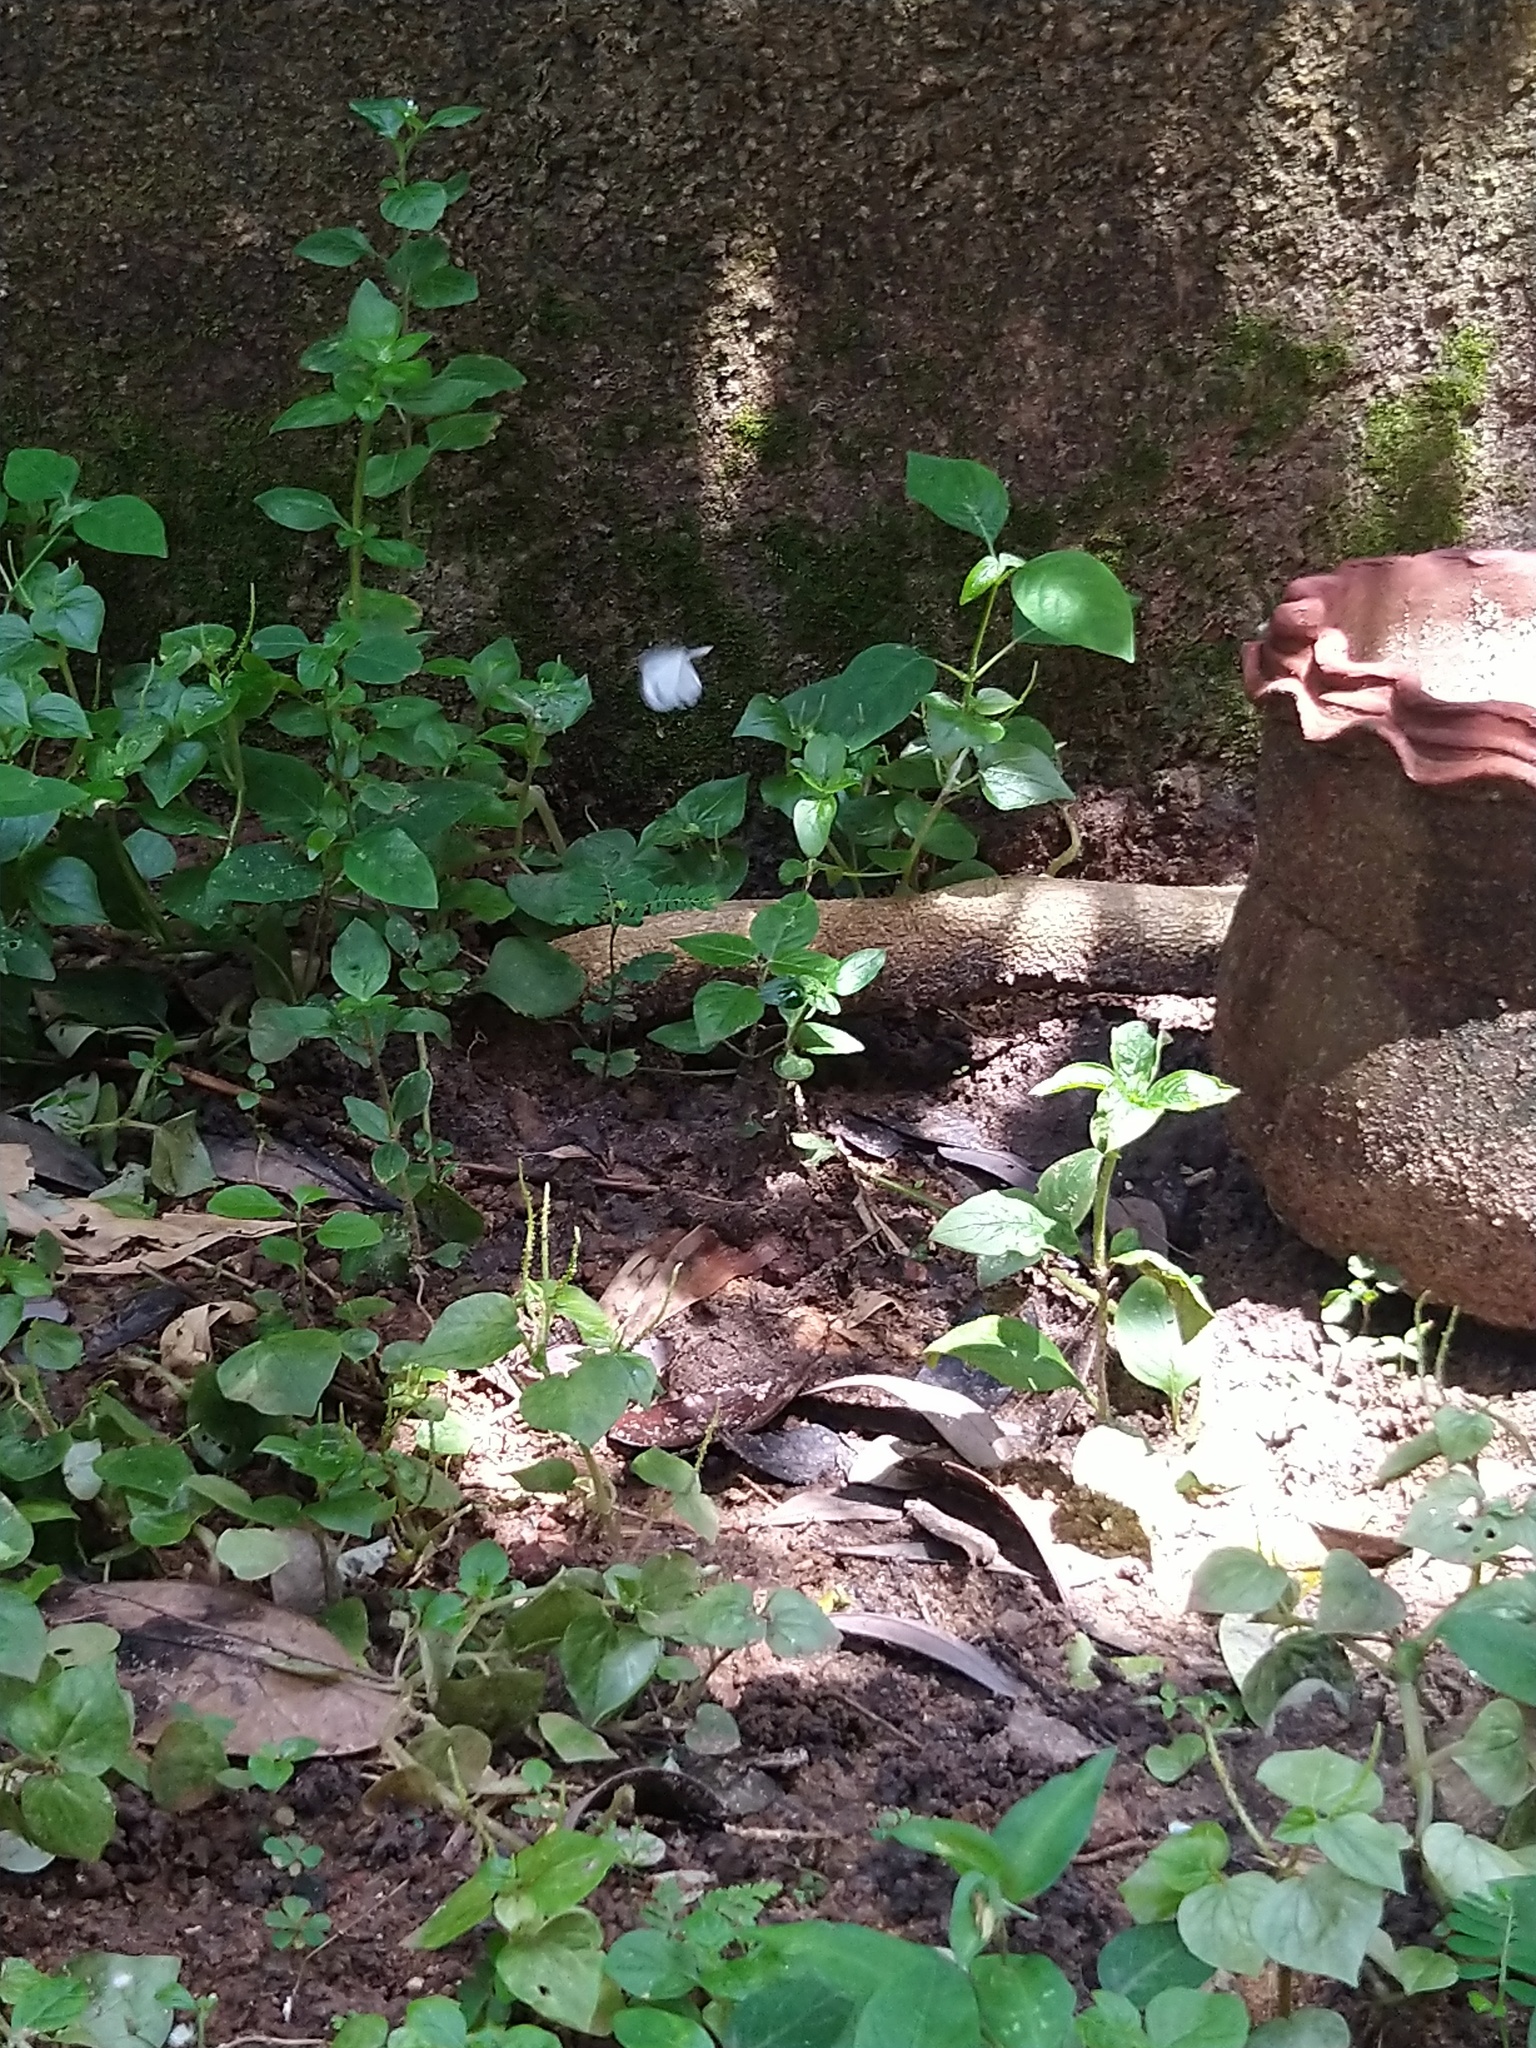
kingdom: Animalia
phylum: Arthropoda
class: Insecta
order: Lepidoptera
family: Pieridae
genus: Leptosia
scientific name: Leptosia nina
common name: Psyche
